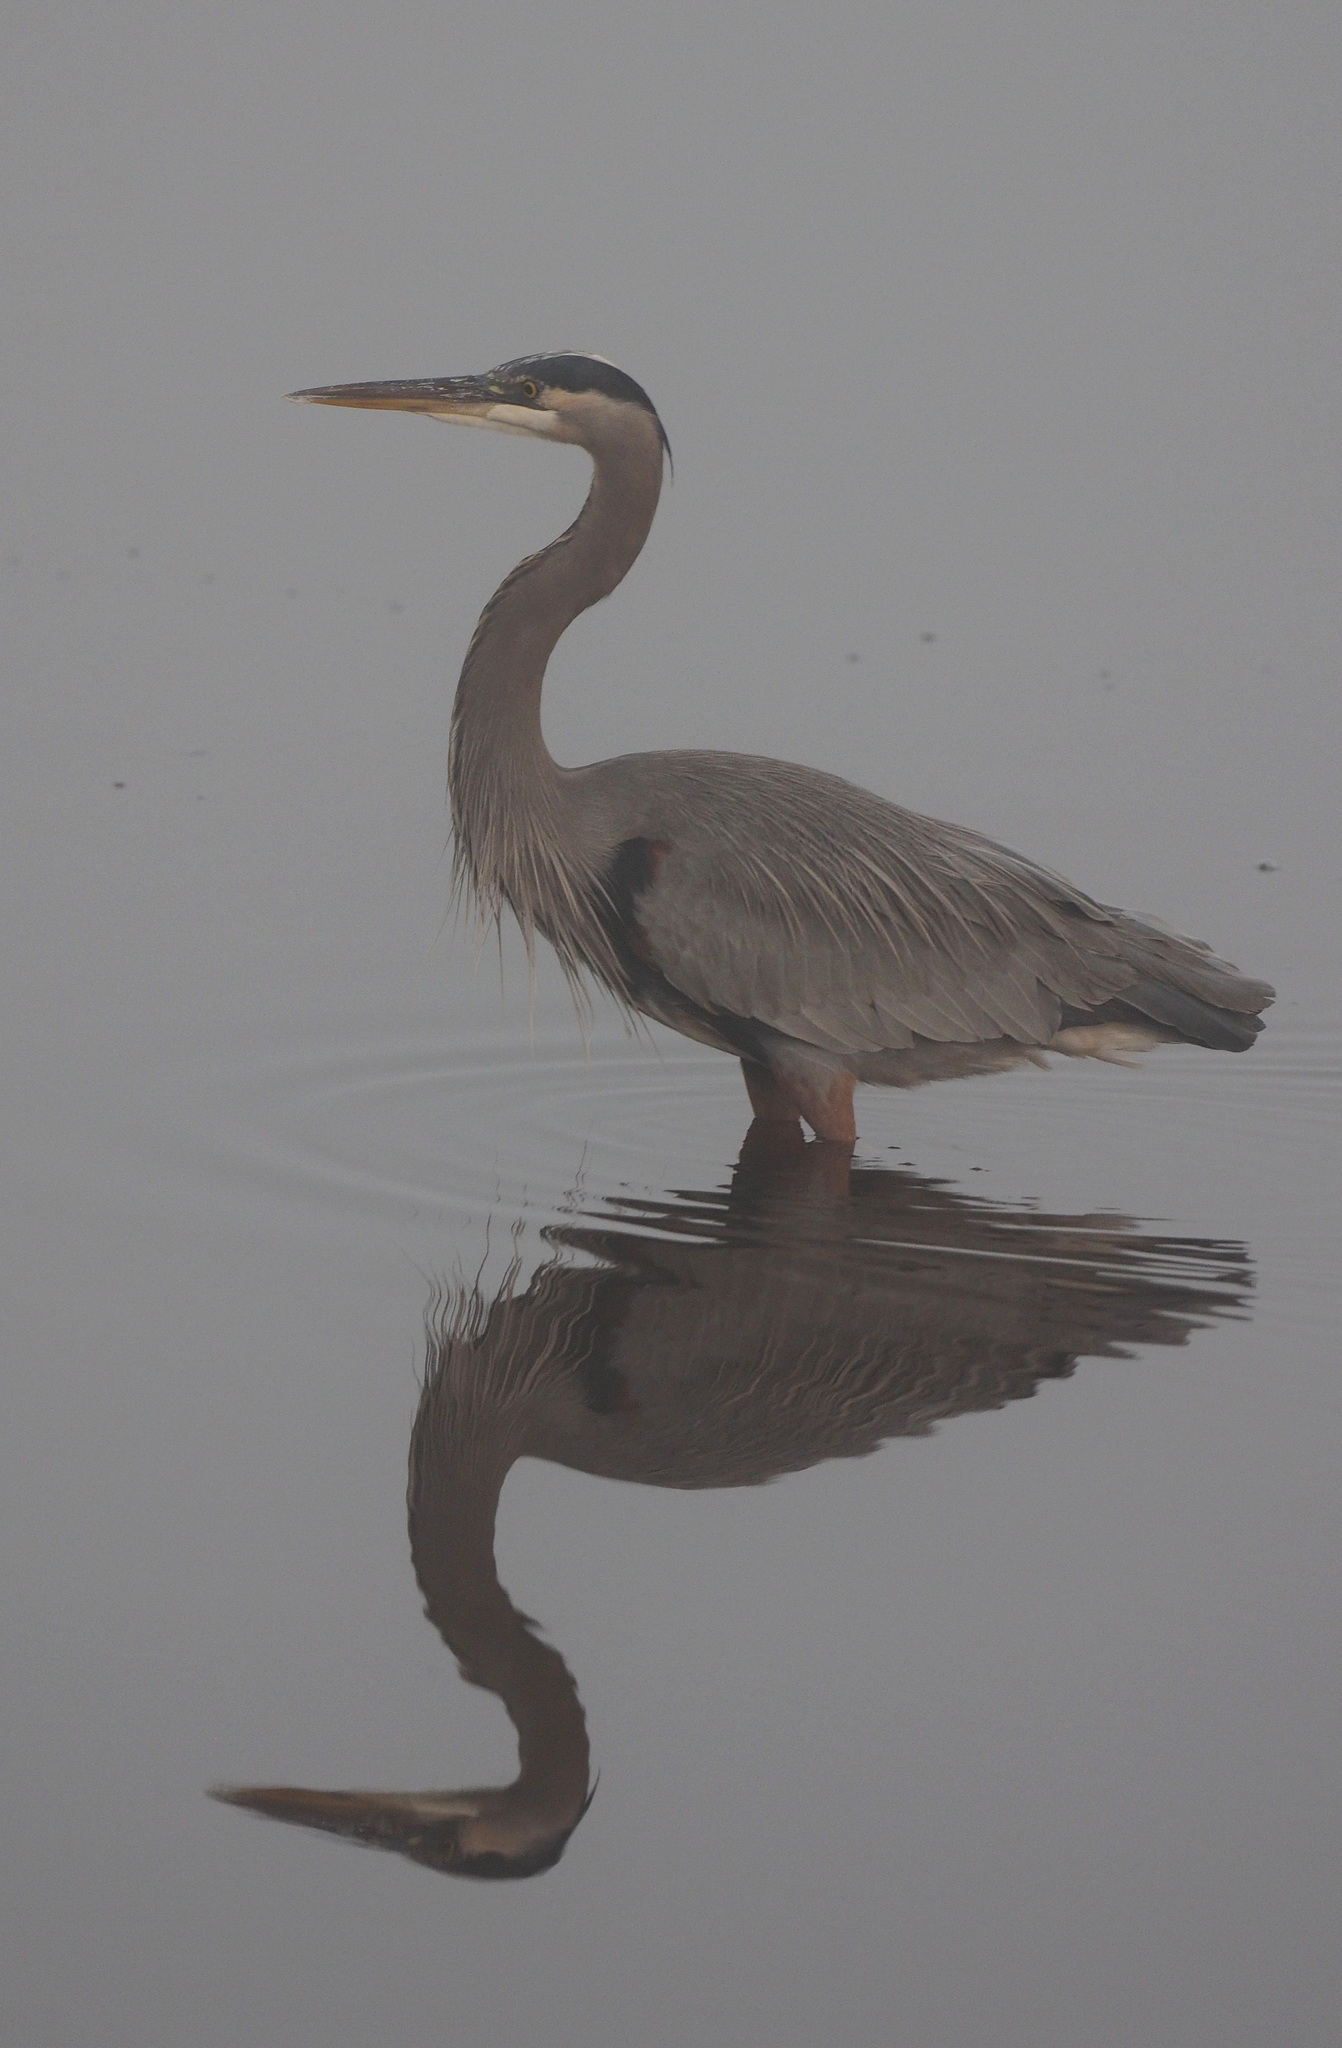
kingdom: Animalia
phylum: Chordata
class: Aves
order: Pelecaniformes
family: Ardeidae
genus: Ardea
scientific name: Ardea herodias
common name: Great blue heron
